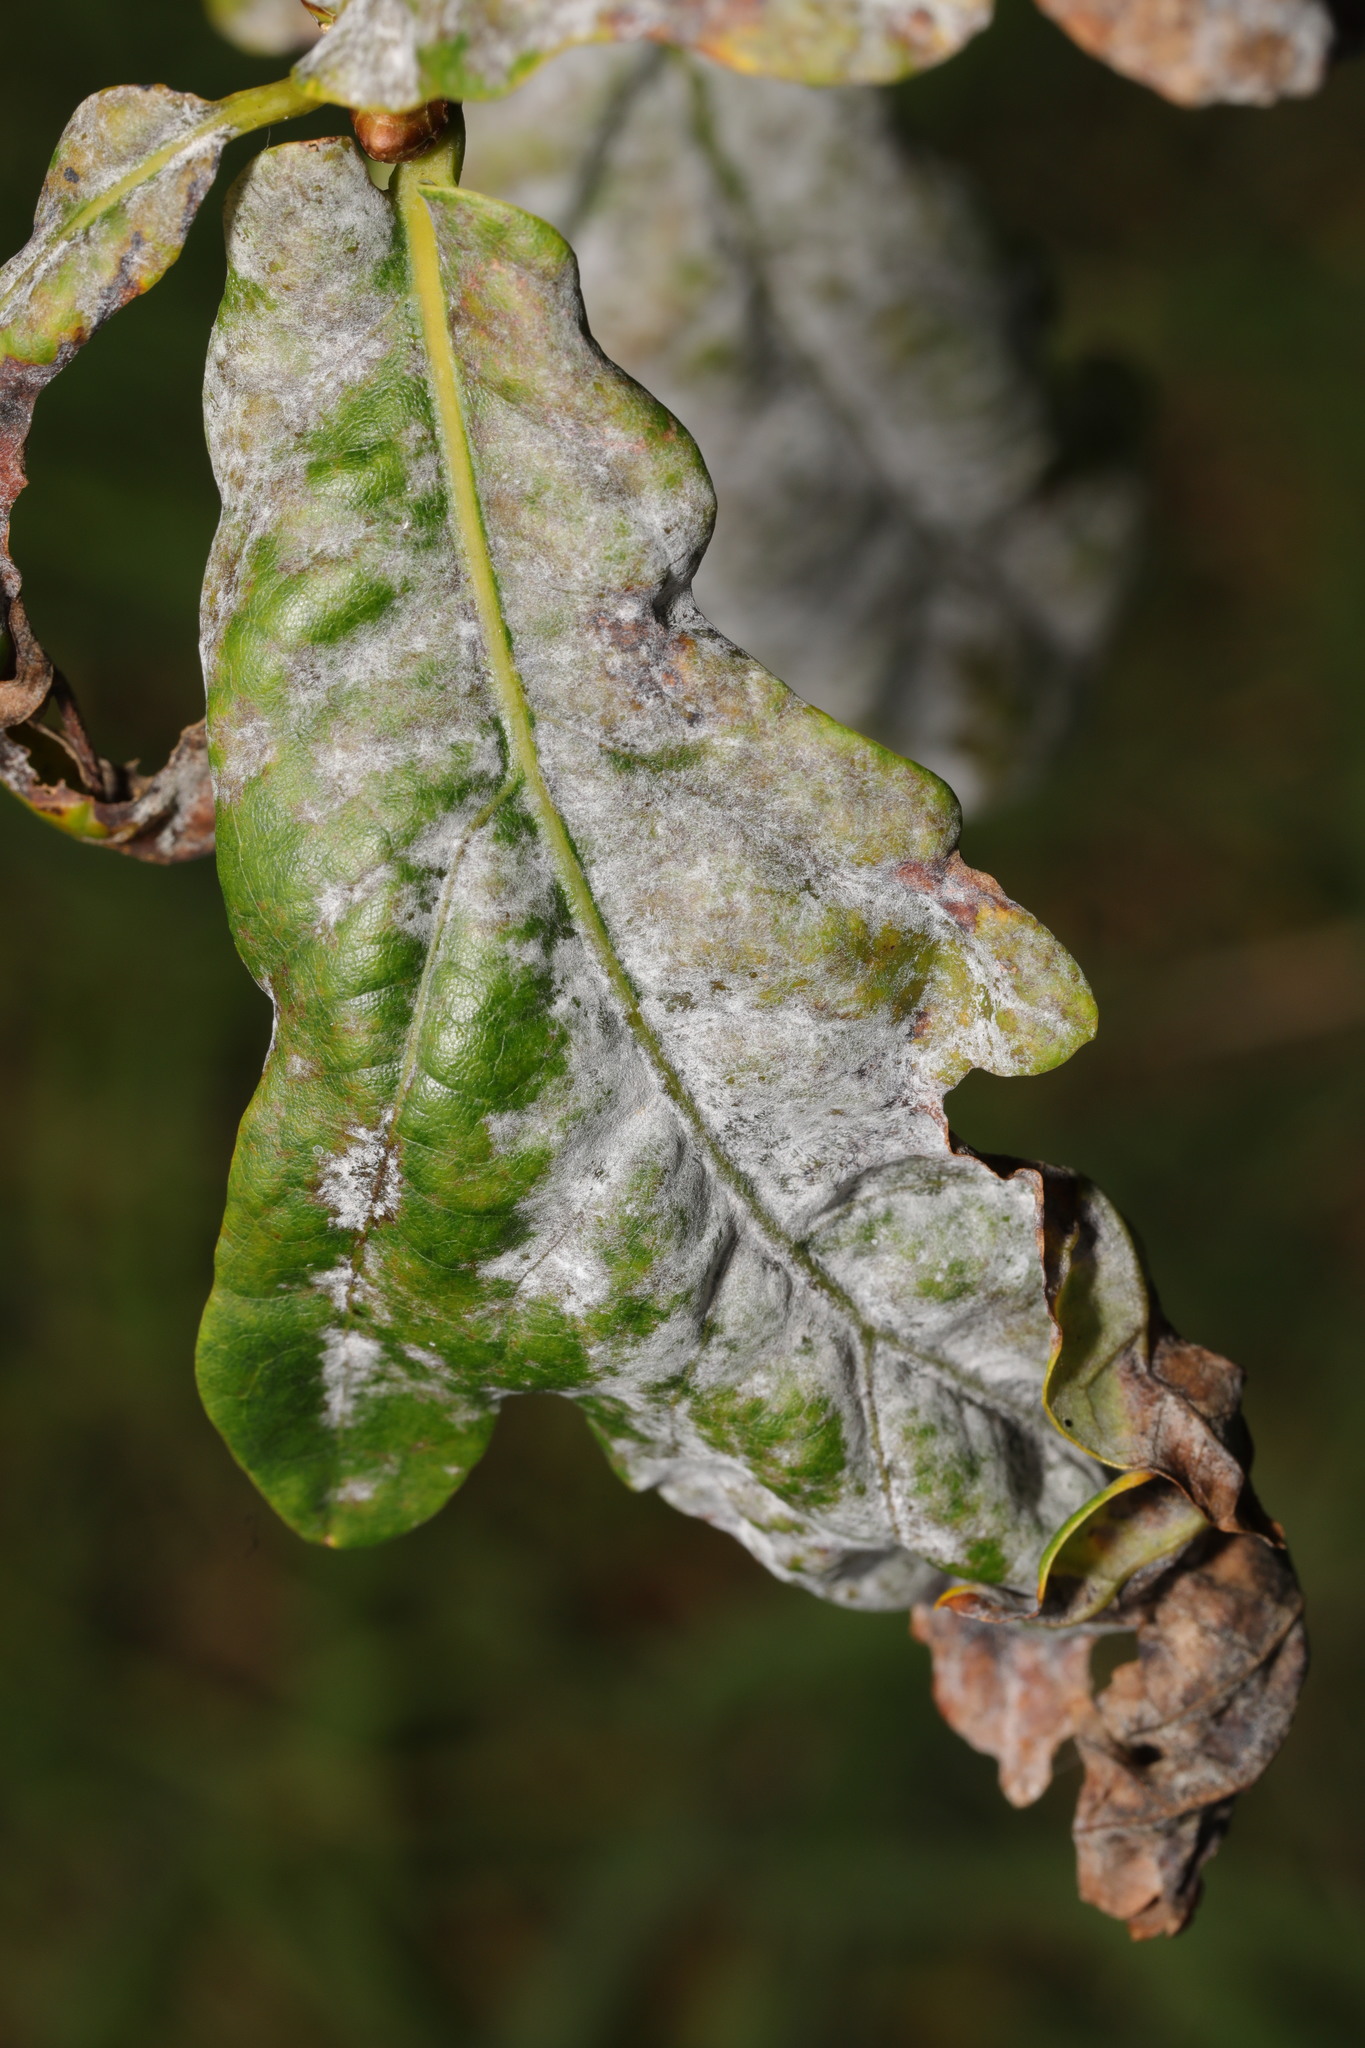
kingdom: Fungi
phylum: Ascomycota
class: Leotiomycetes
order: Helotiales
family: Erysiphaceae
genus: Erysiphe
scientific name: Erysiphe alphitoides
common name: Oak mildew
